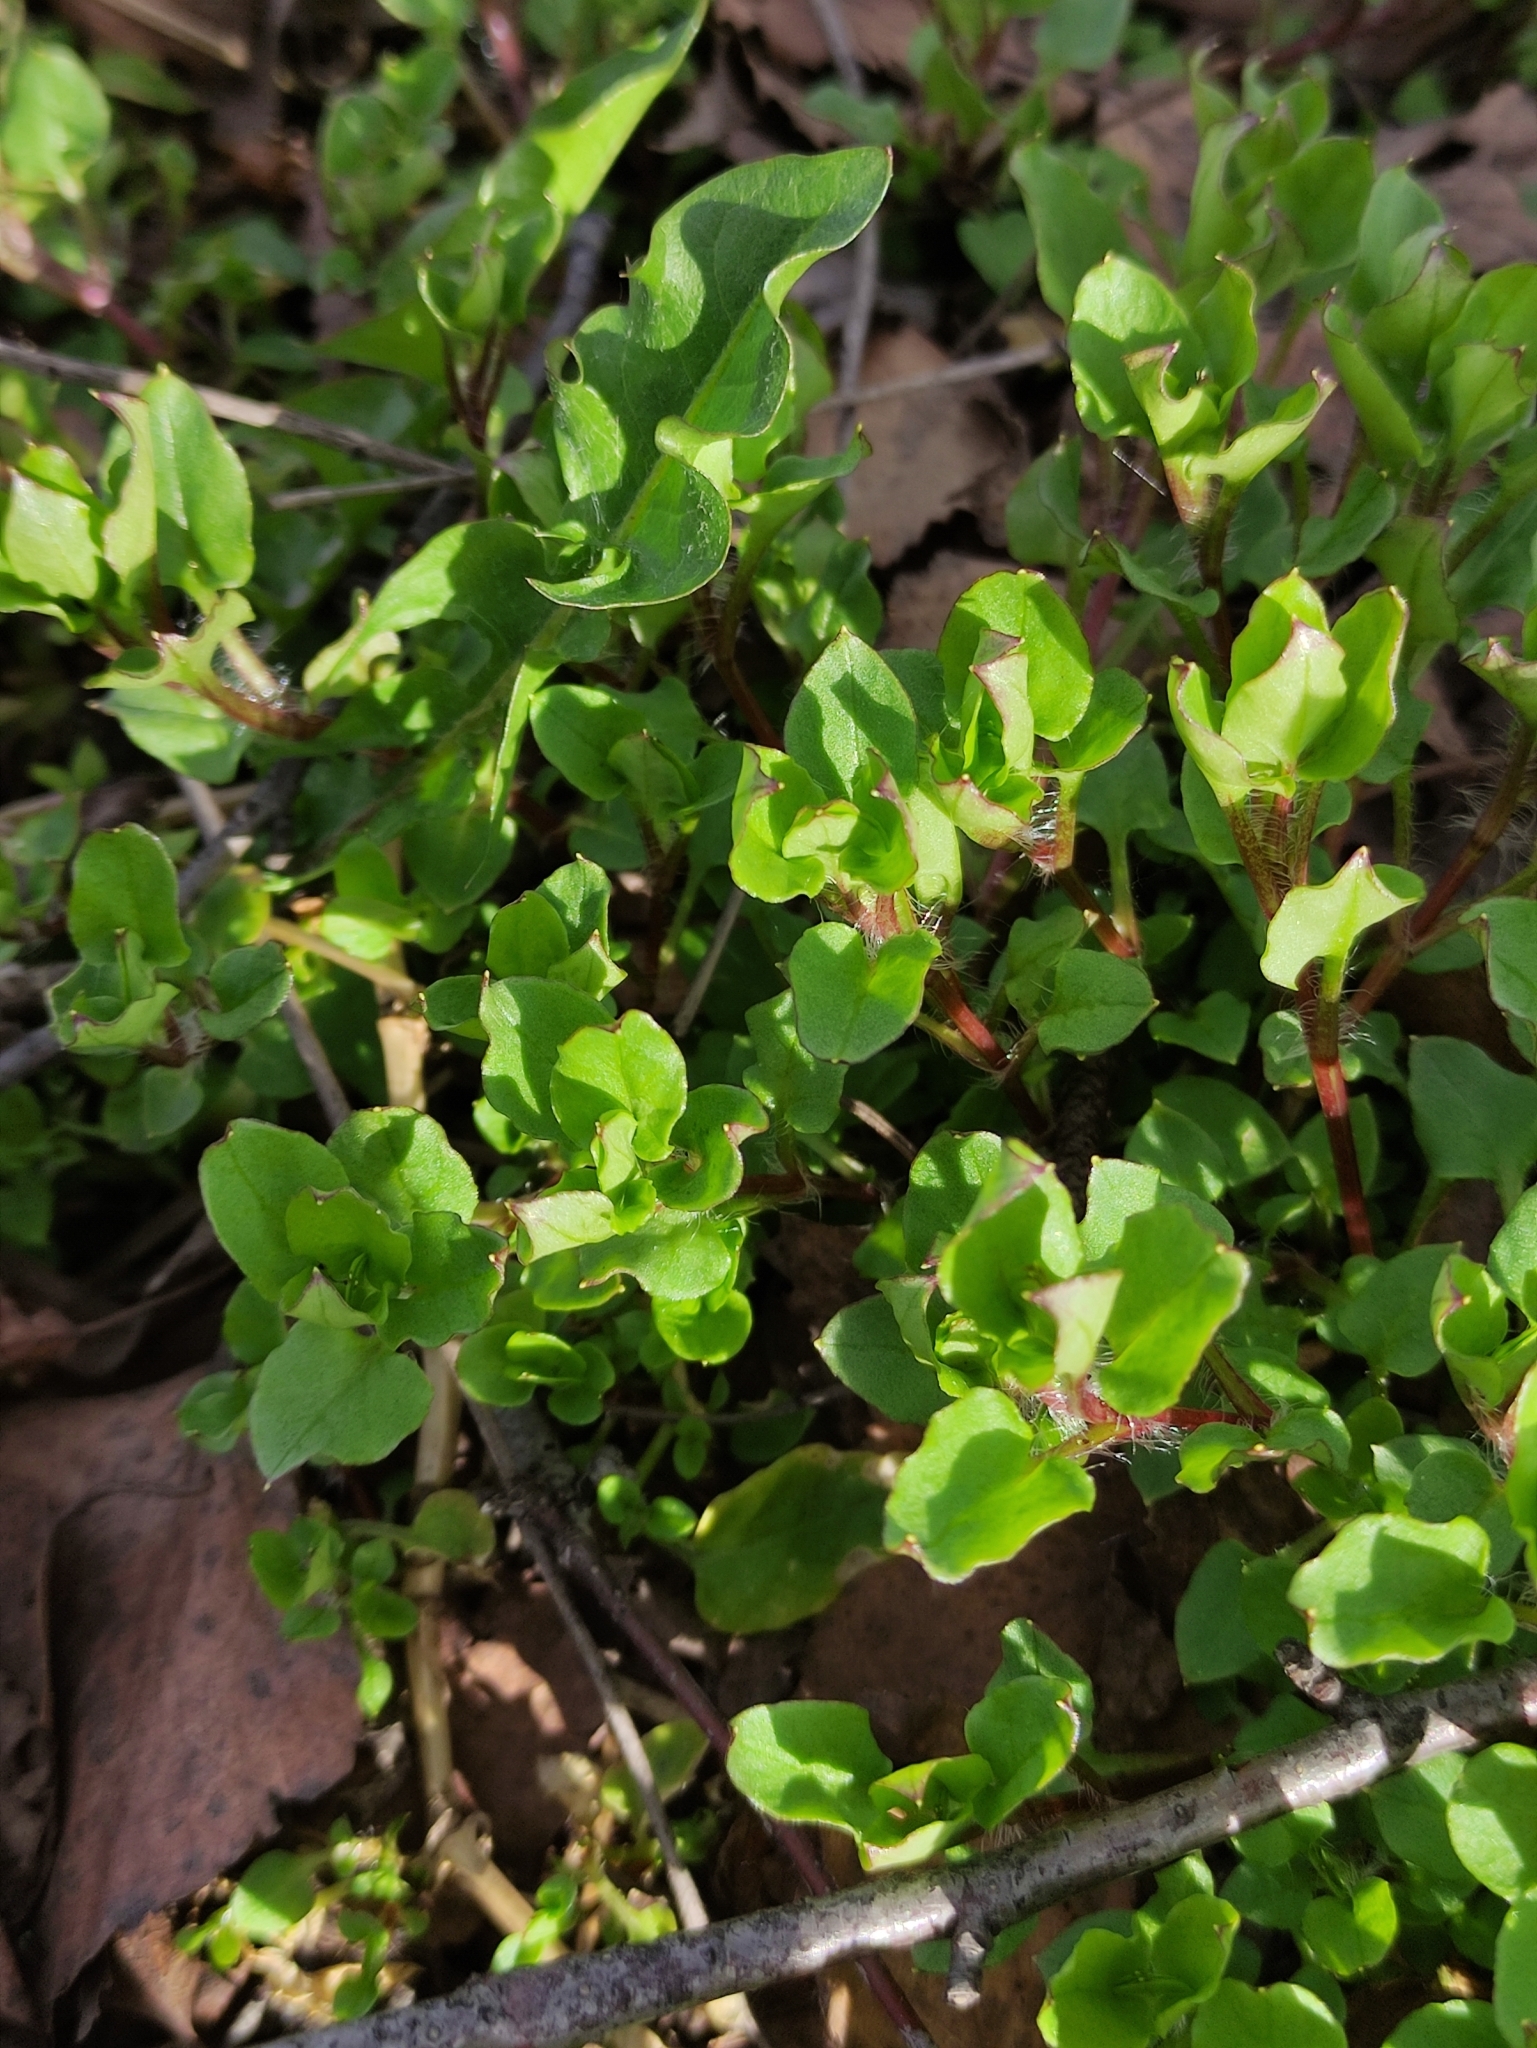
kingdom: Plantae
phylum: Tracheophyta
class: Magnoliopsida
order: Caryophyllales
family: Caryophyllaceae
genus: Stellaria
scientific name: Stellaria aquatica
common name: Water chickweed
